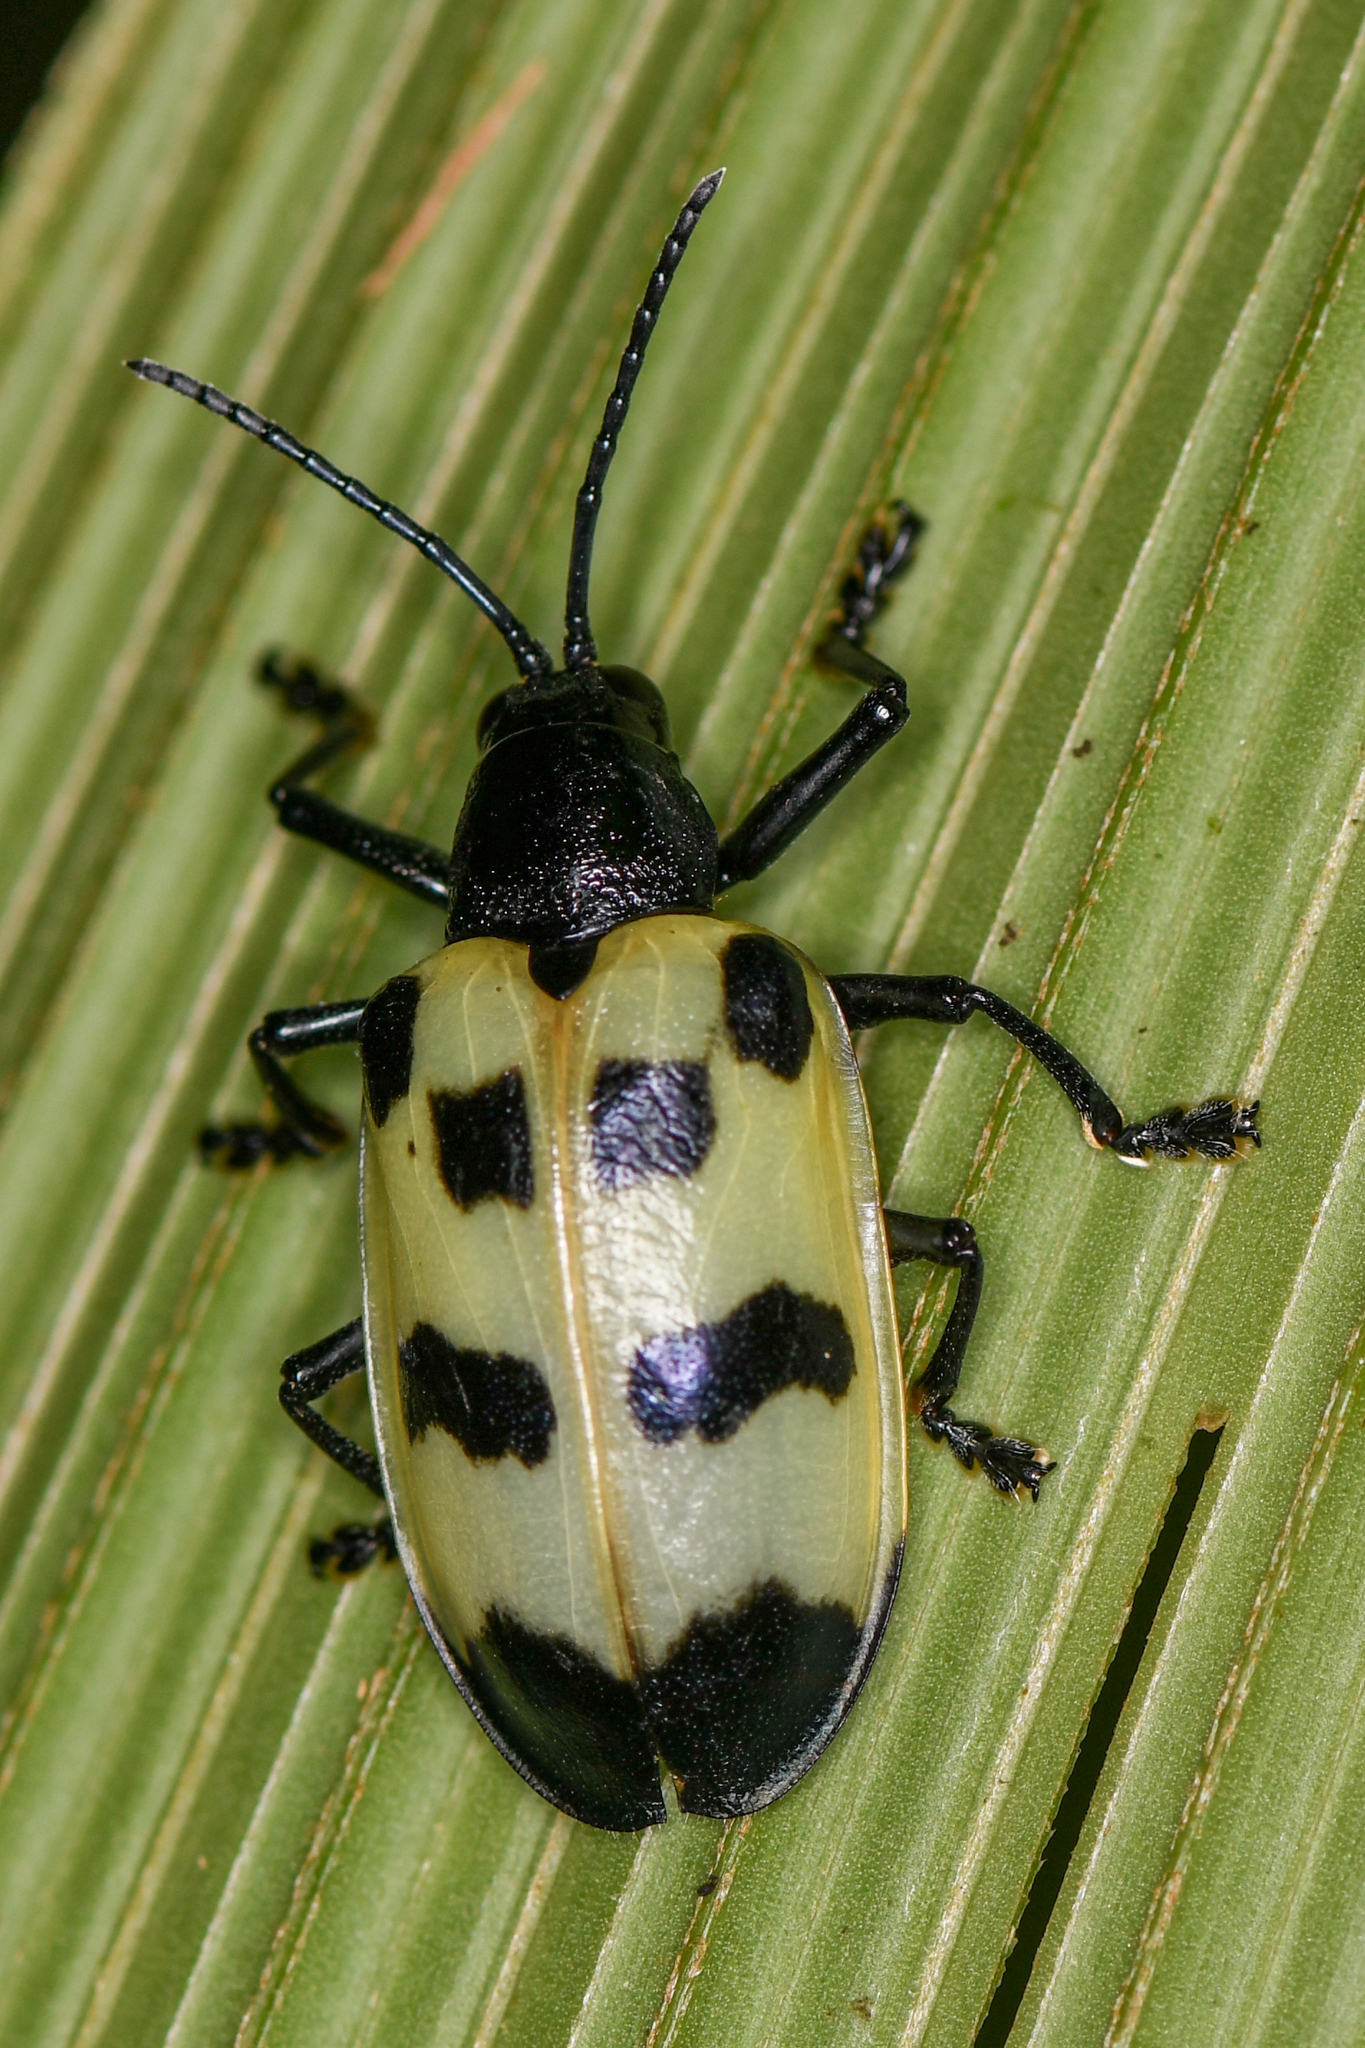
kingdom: Animalia
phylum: Arthropoda
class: Insecta
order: Coleoptera
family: Chrysomelidae
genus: Alurnus
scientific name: Alurnus salvini
